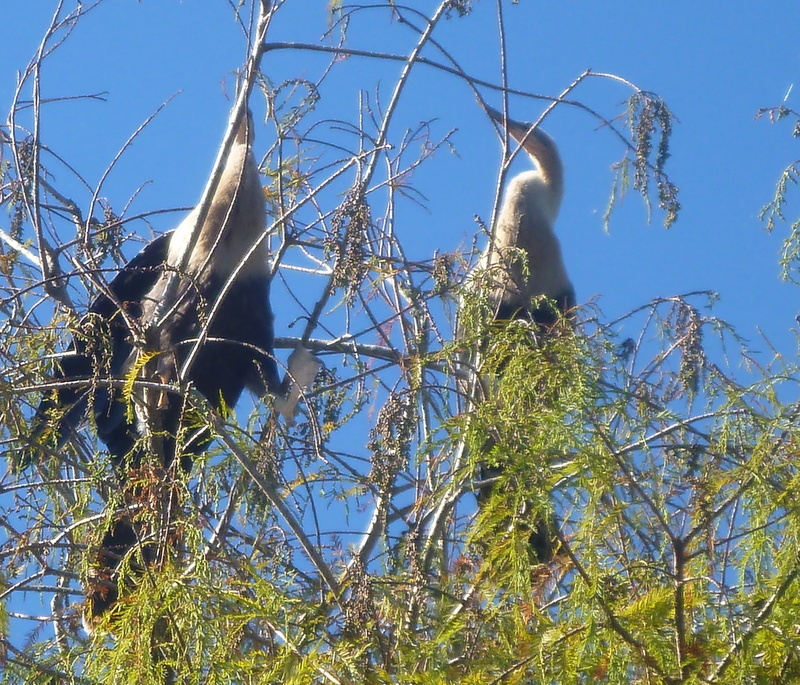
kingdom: Animalia
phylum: Chordata
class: Aves
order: Suliformes
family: Anhingidae
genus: Anhinga
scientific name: Anhinga anhinga
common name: Anhinga
